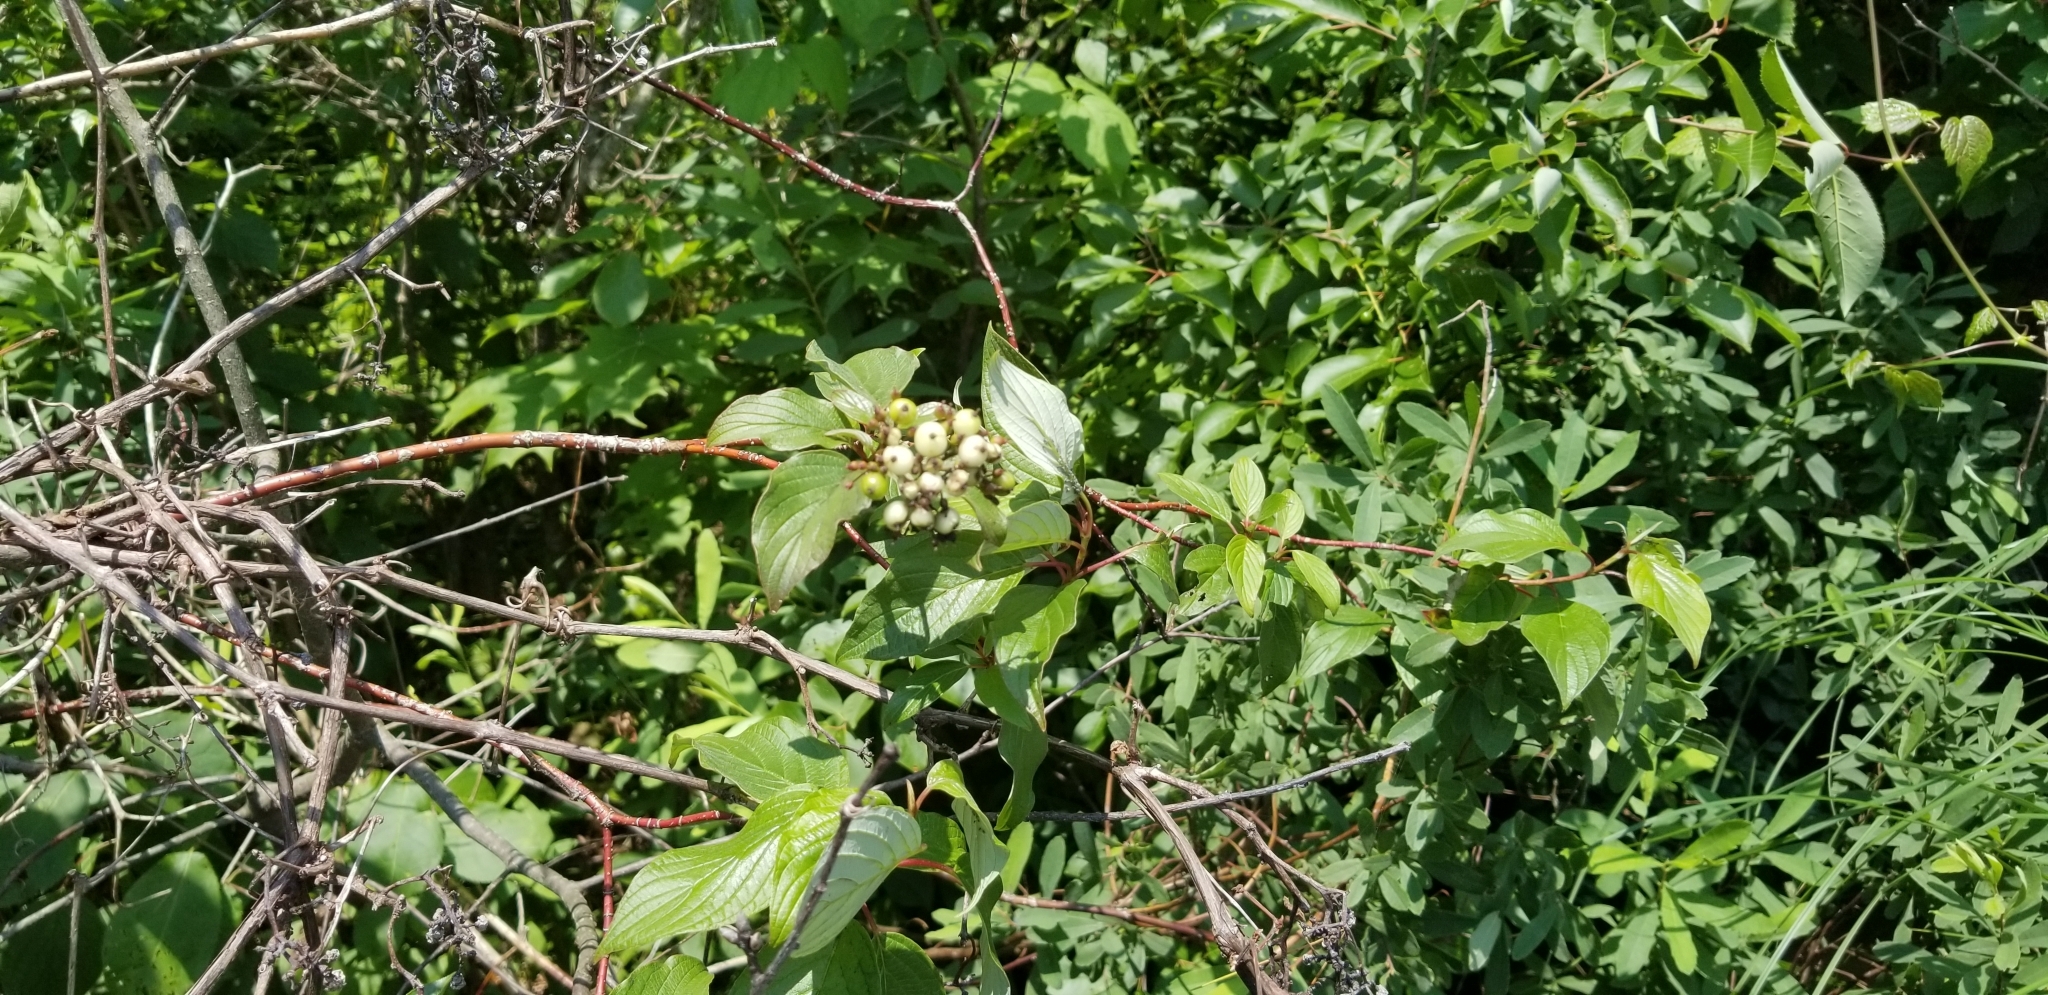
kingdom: Plantae
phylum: Tracheophyta
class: Magnoliopsida
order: Cornales
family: Cornaceae
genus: Cornus
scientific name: Cornus sericea
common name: Red-osier dogwood
